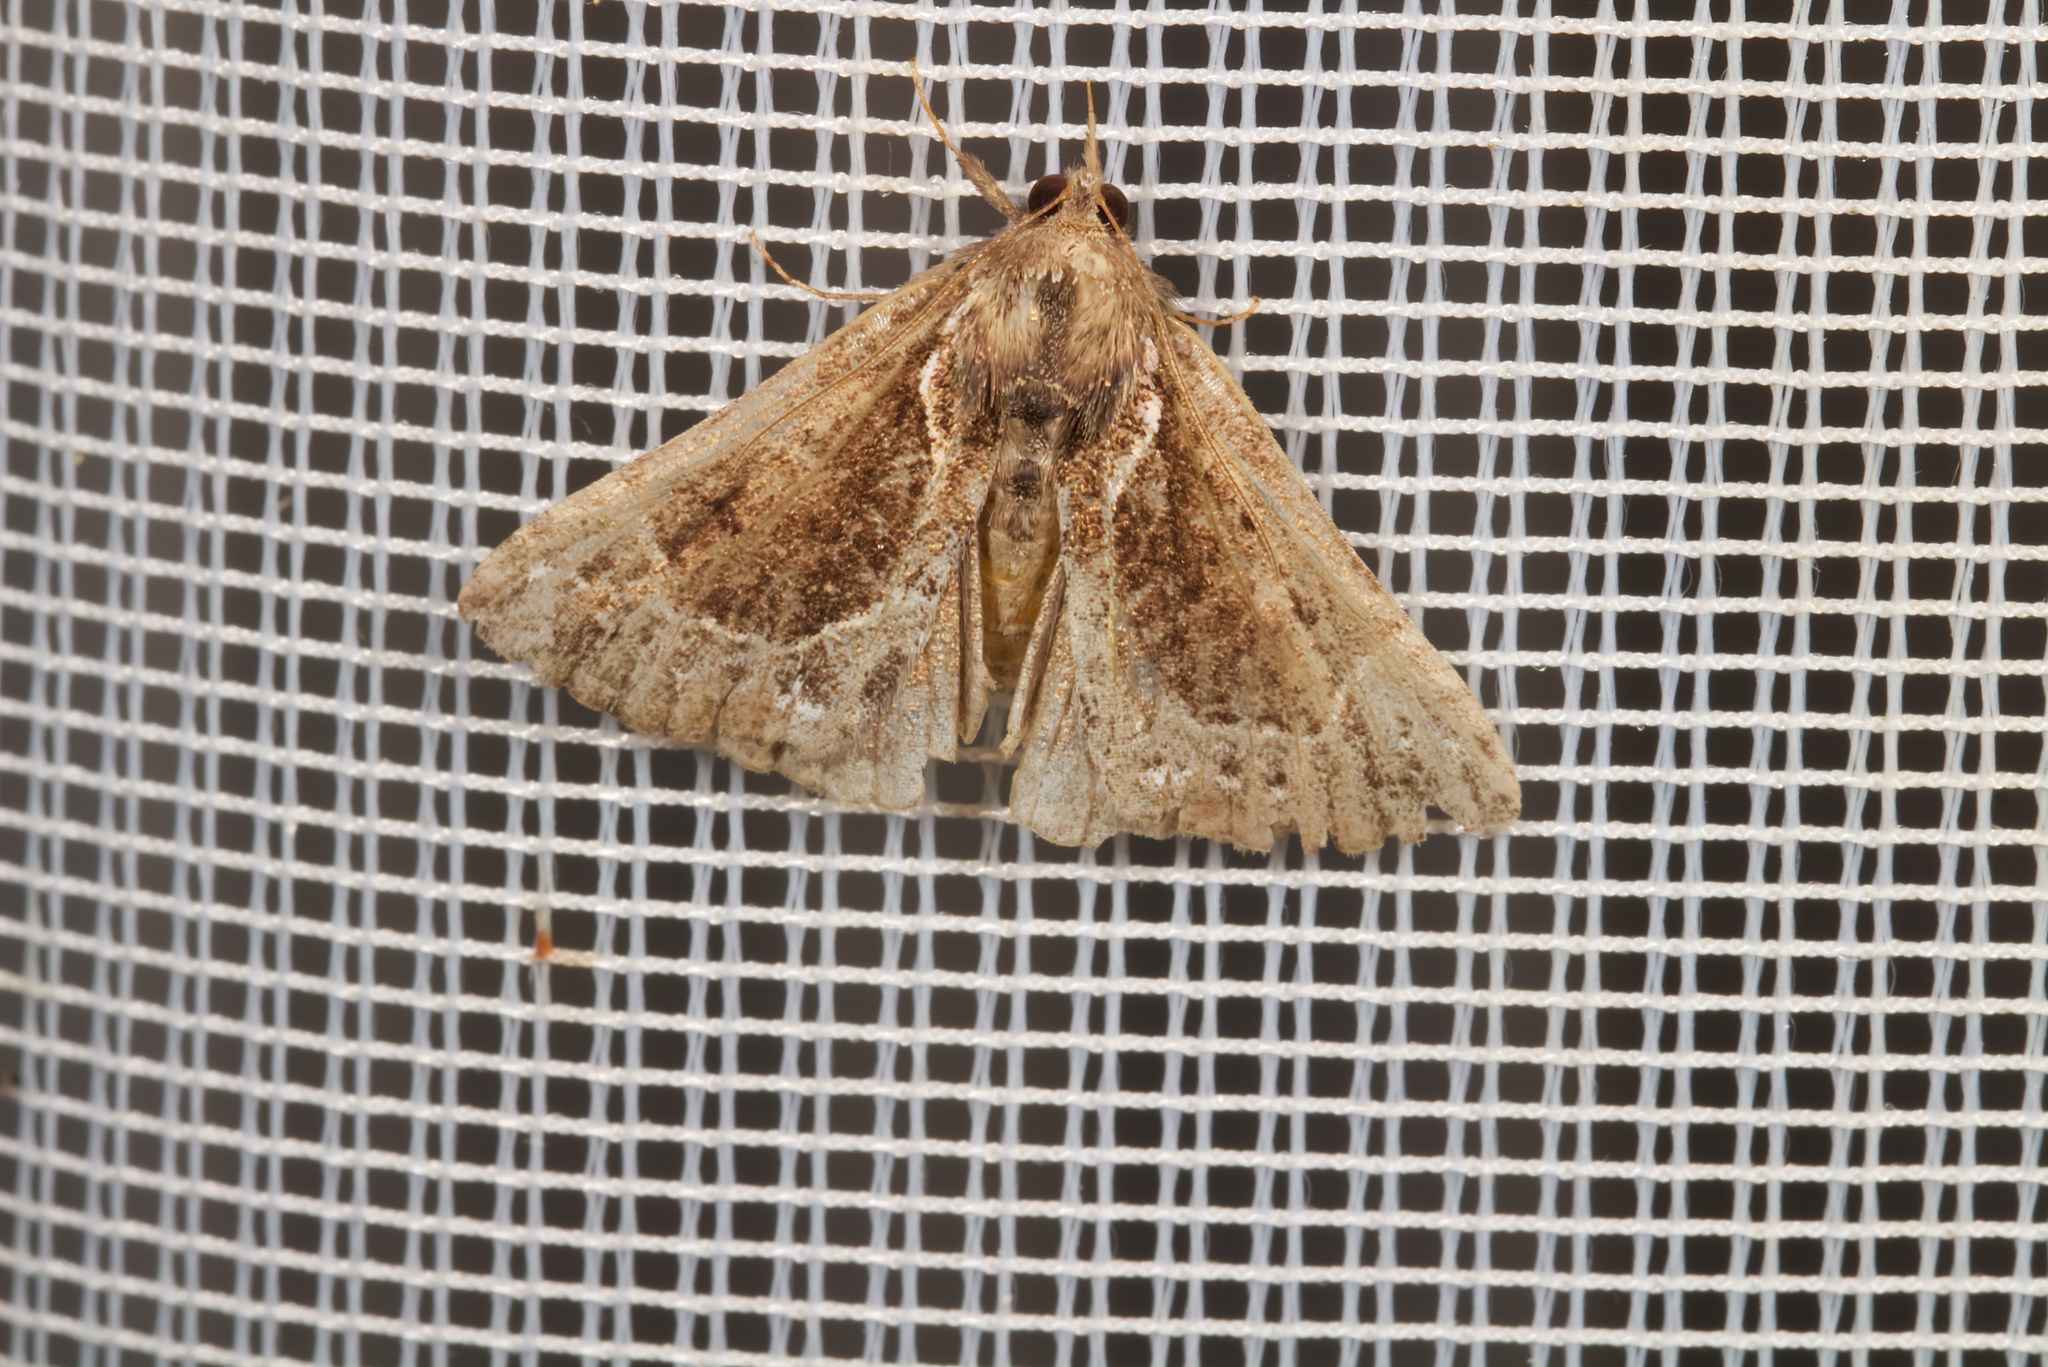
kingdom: Animalia
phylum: Arthropoda
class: Insecta
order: Lepidoptera
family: Erebidae
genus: Hypena
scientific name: Hypena crassalis
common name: Beautiful snout
